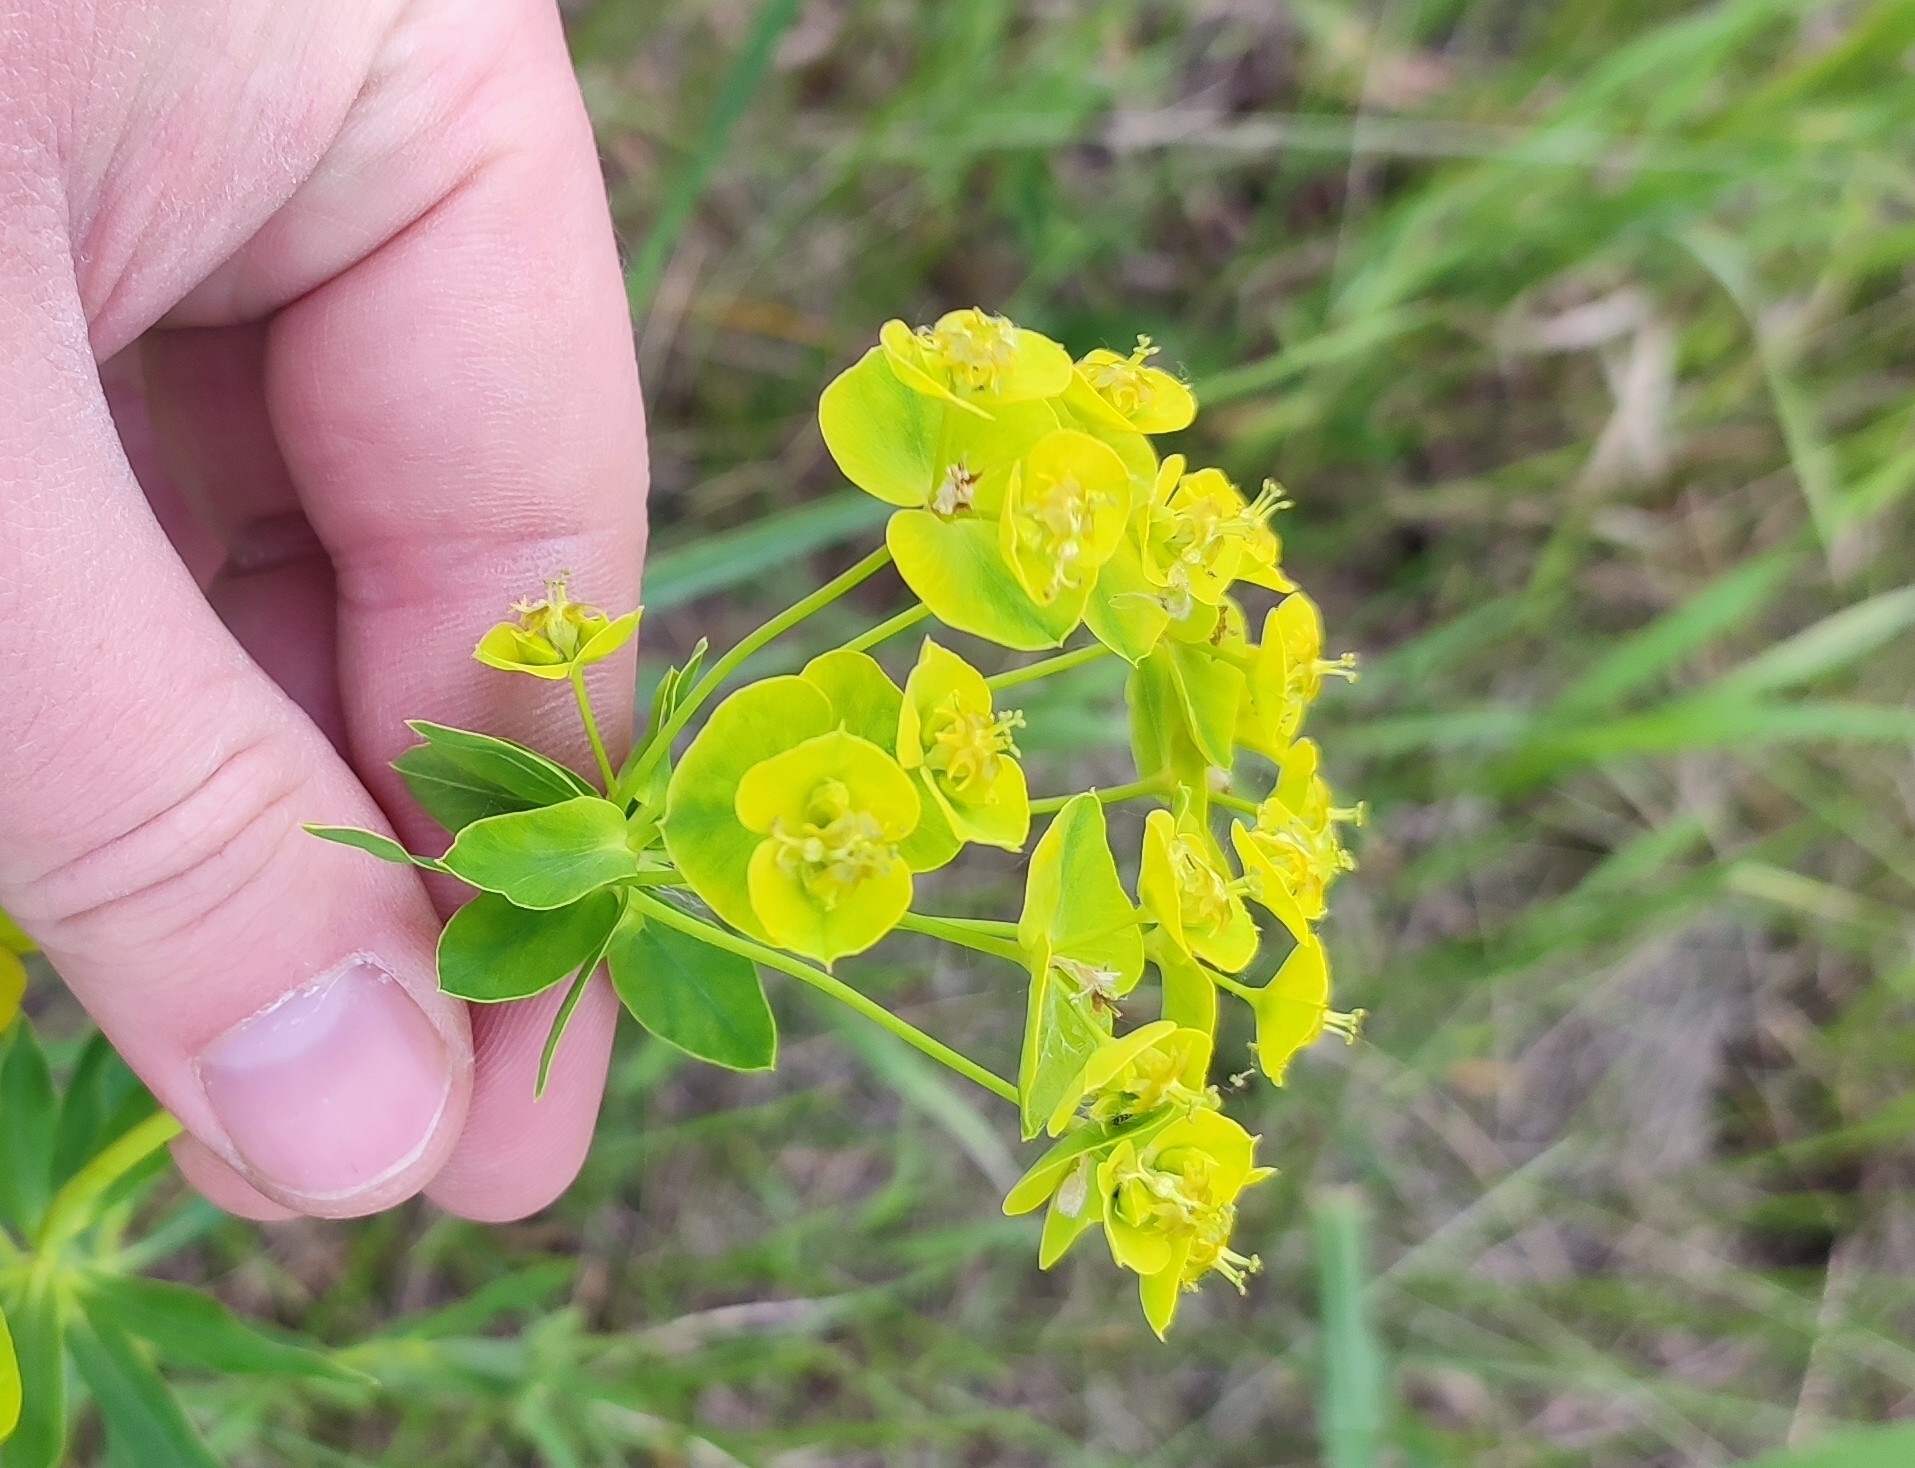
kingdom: Plantae
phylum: Tracheophyta
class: Magnoliopsida
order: Malpighiales
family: Euphorbiaceae
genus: Euphorbia
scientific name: Euphorbia virgata
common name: Leafy spurge
